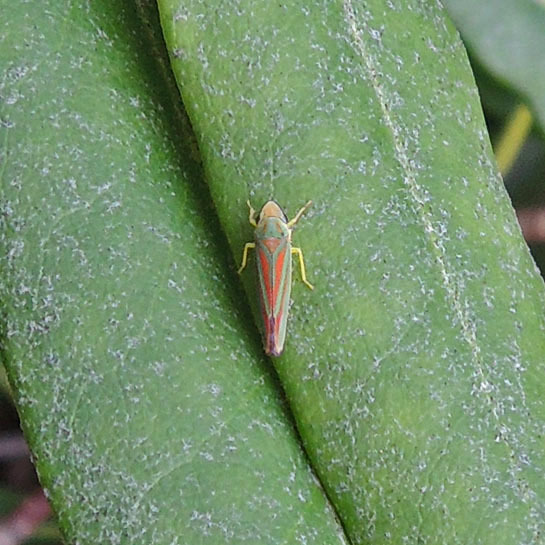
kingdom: Animalia
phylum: Arthropoda
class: Insecta
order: Hemiptera
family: Cicadellidae
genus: Graphocephala
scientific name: Graphocephala fennahi
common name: Rhododendron leafhopper
